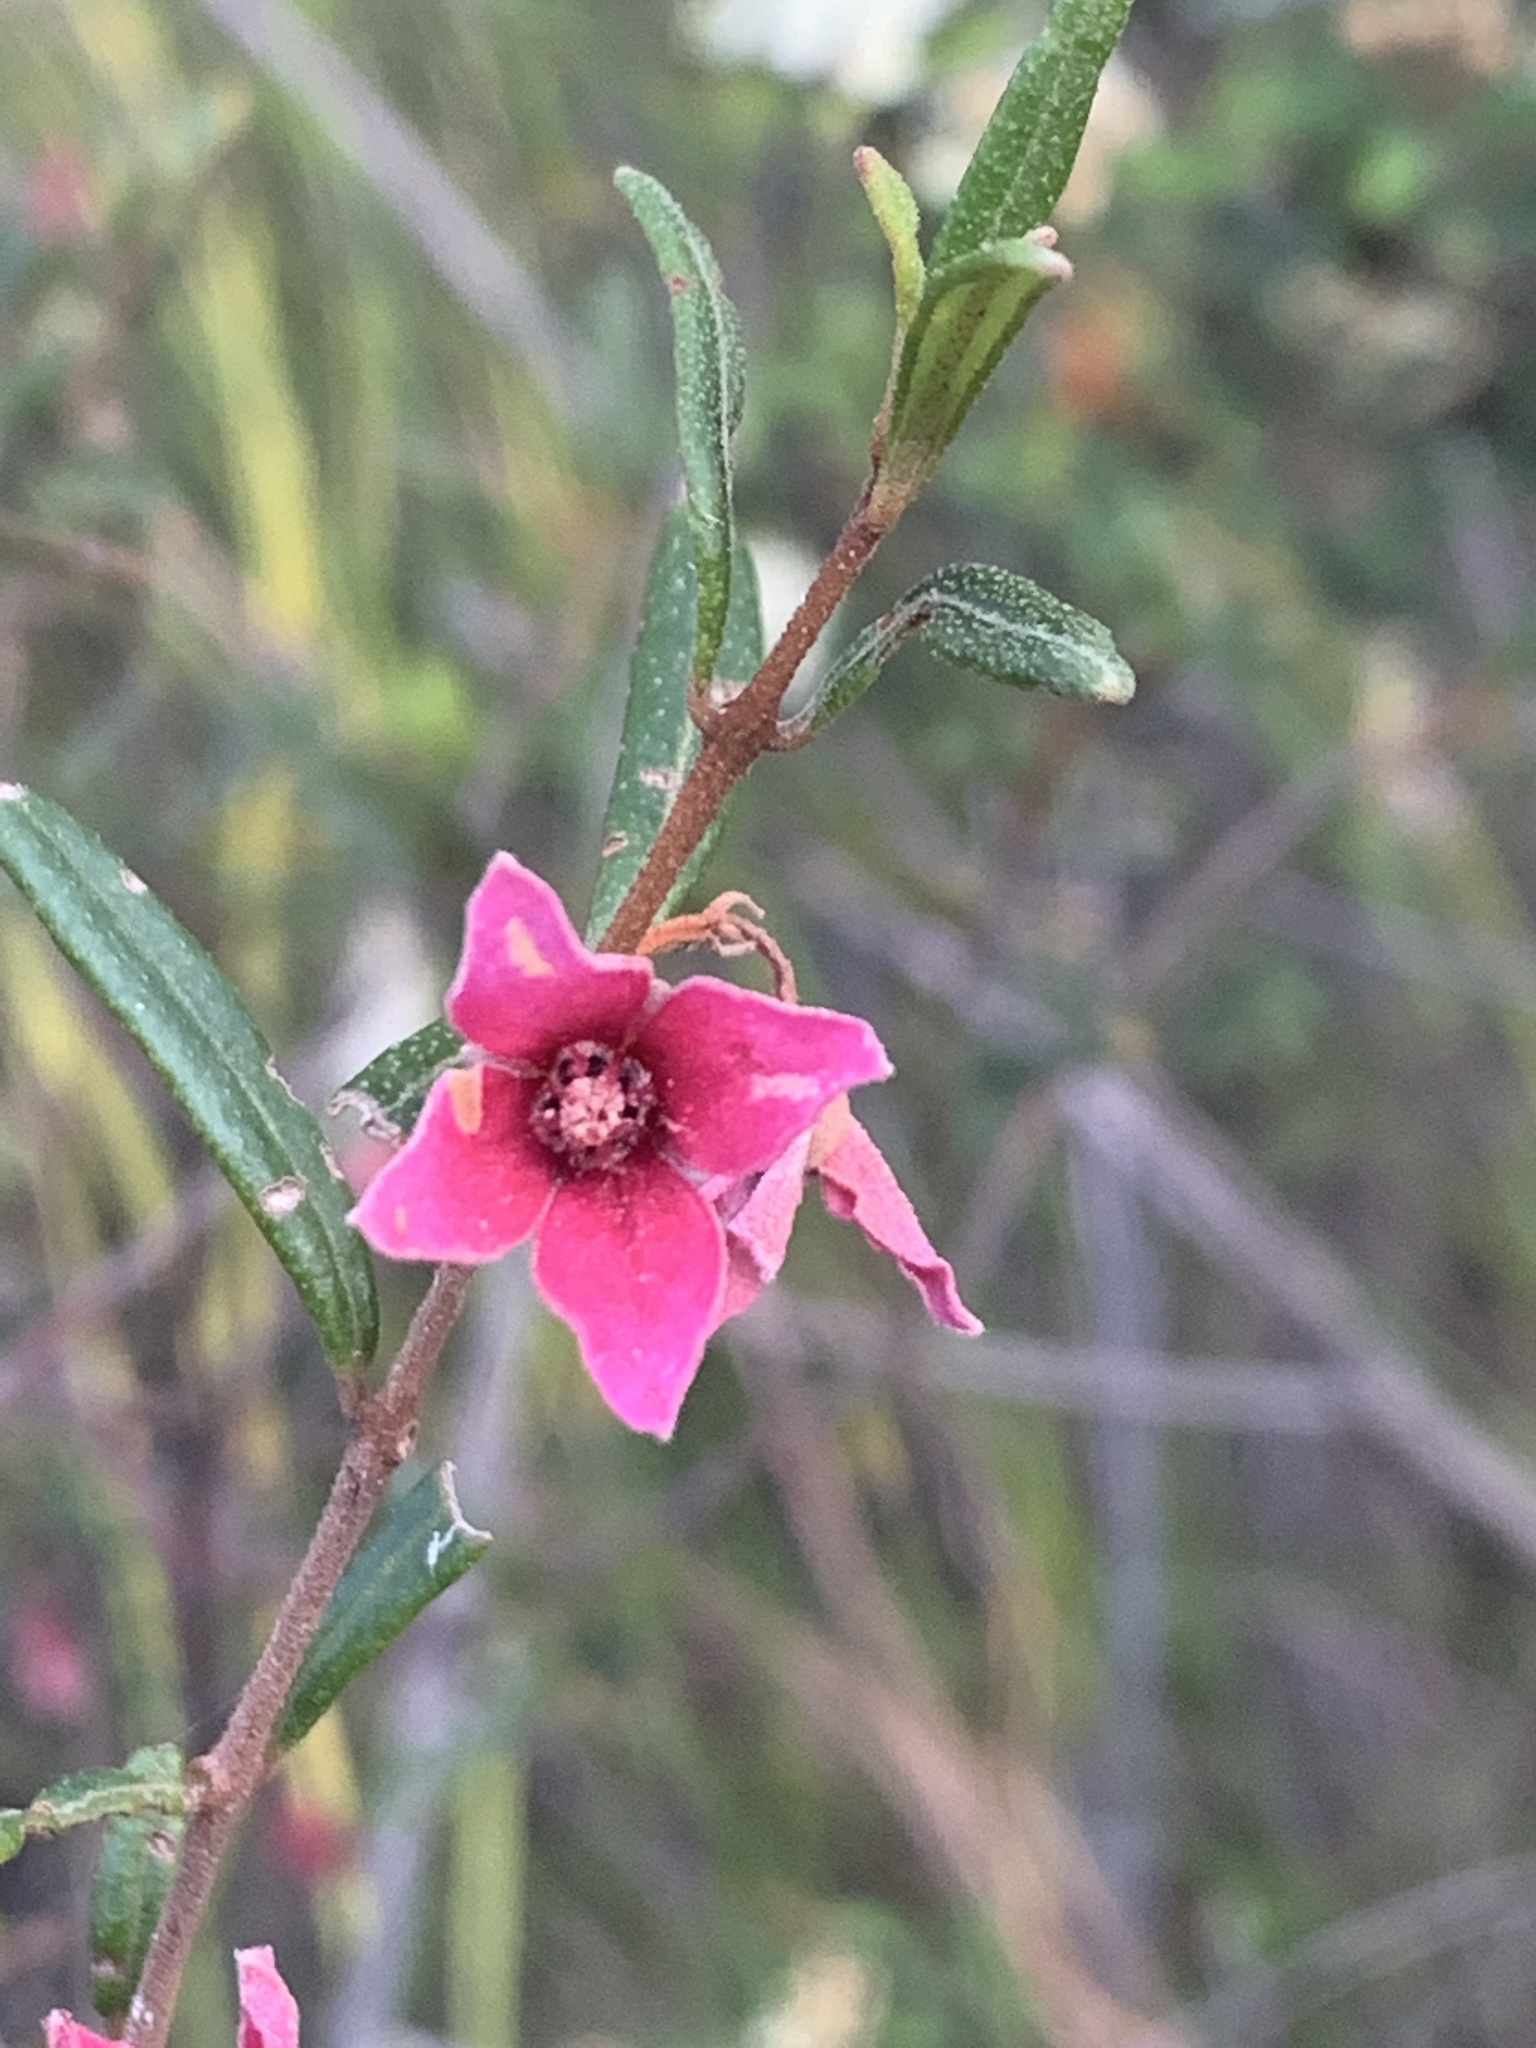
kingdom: Plantae
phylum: Tracheophyta
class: Magnoliopsida
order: Sapindales
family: Rutaceae
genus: Boronia
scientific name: Boronia ledifolia
